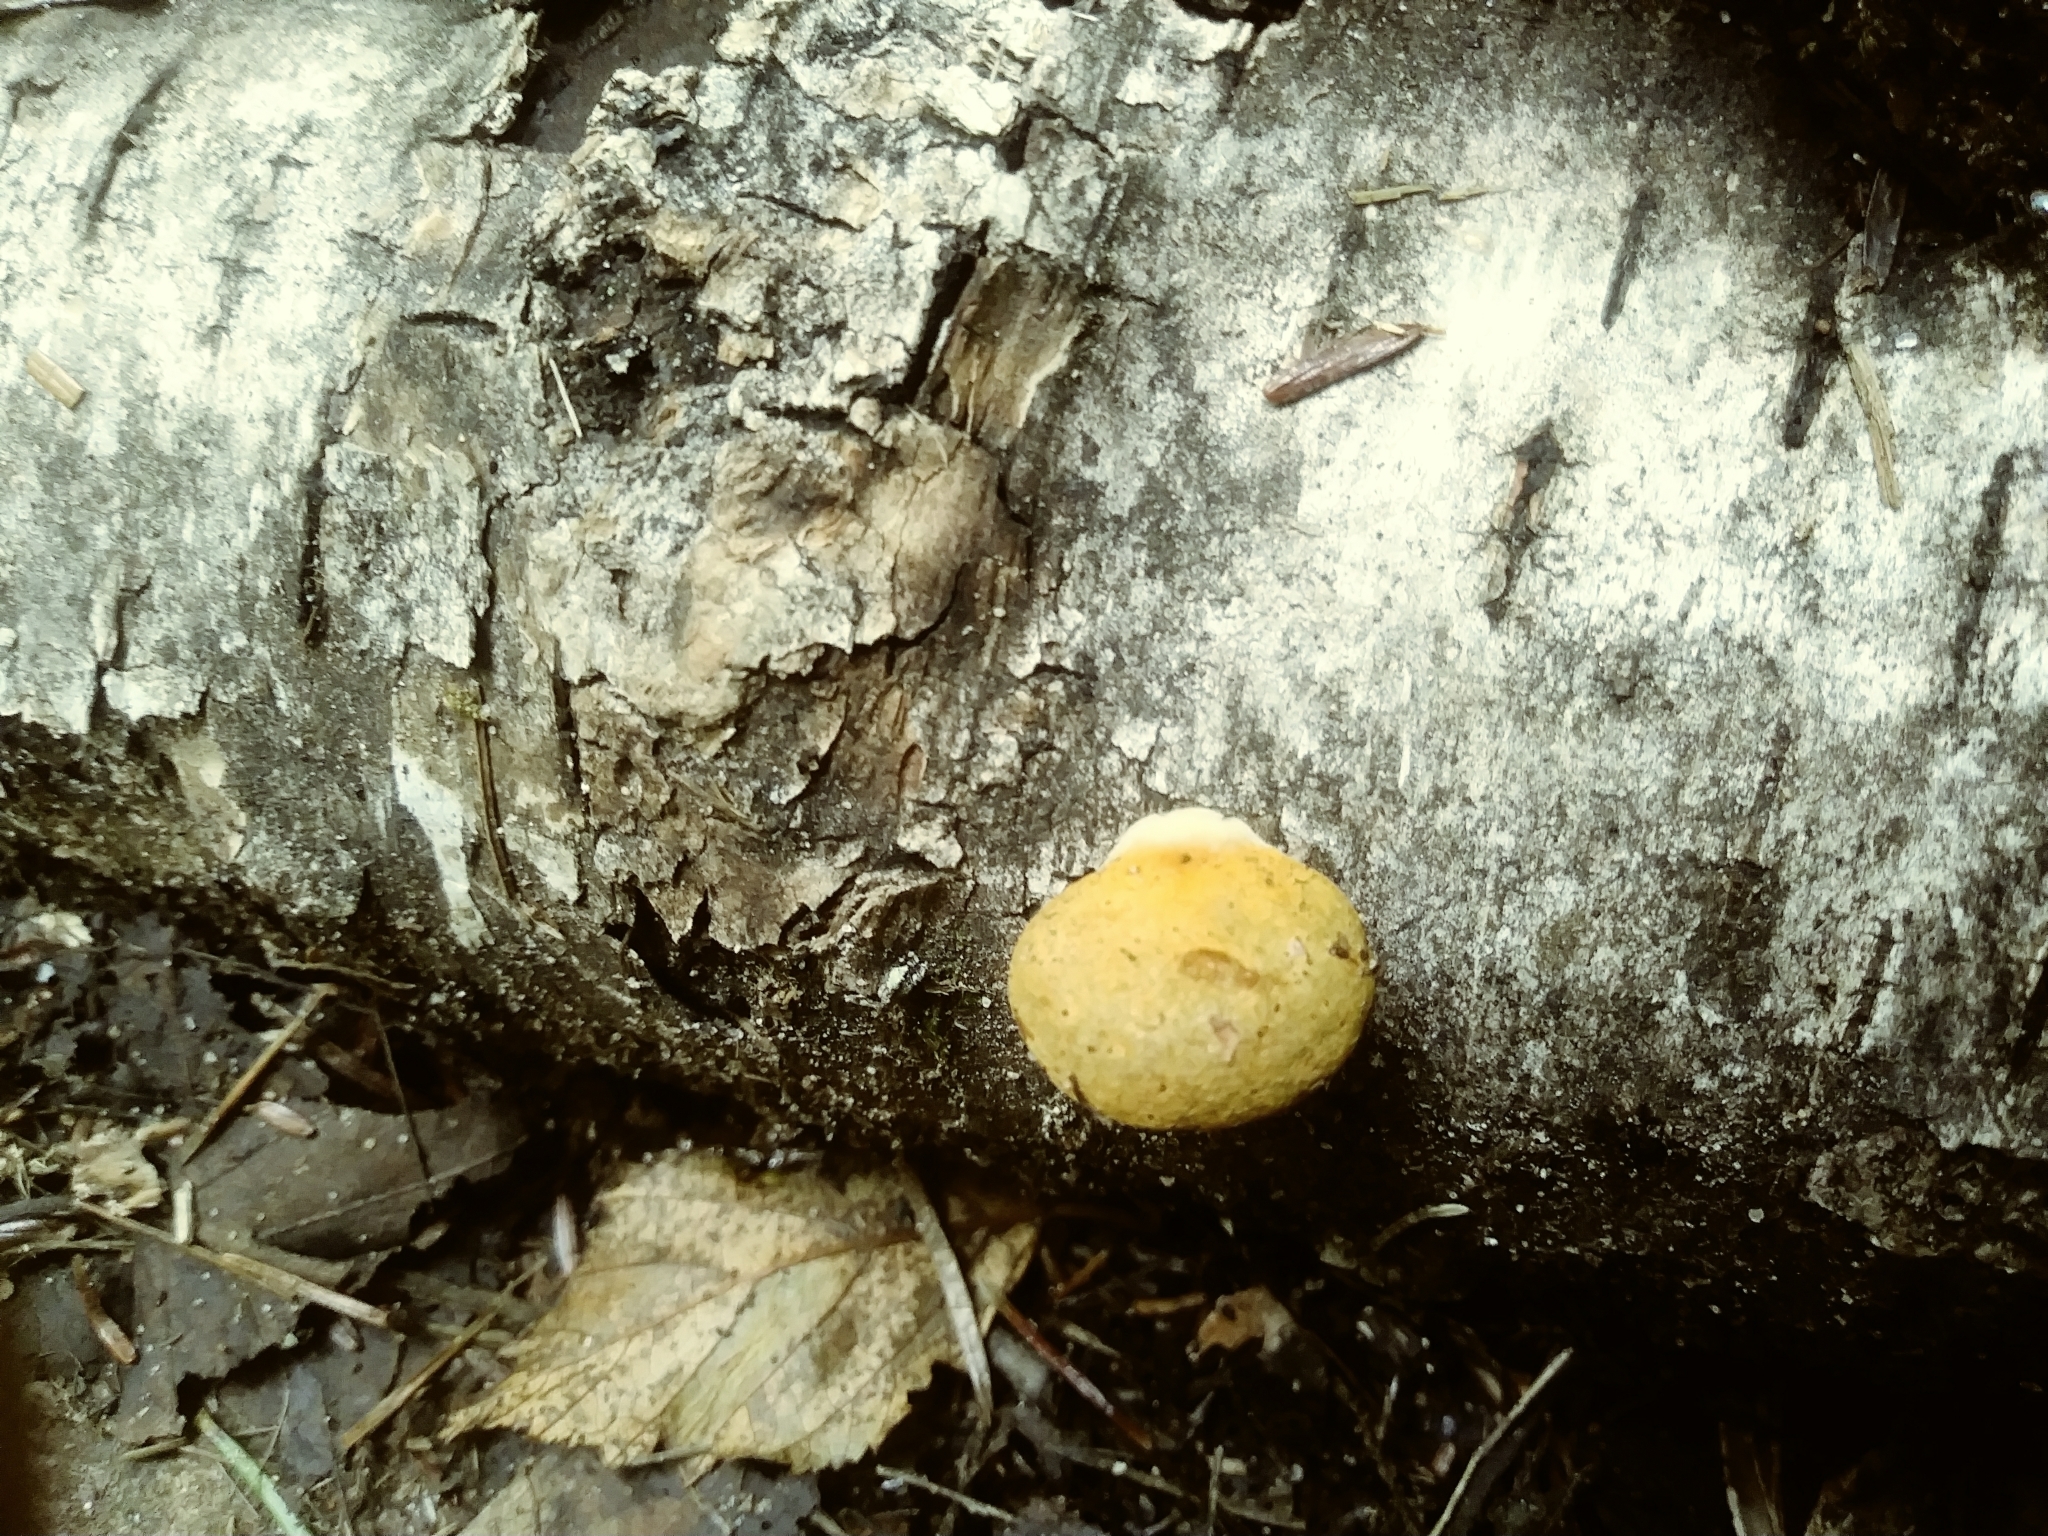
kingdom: Fungi
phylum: Basidiomycota
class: Agaricomycetes
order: Agaricales
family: Sarcomyxaceae
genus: Sarcomyxa
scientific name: Sarcomyxa serotina
